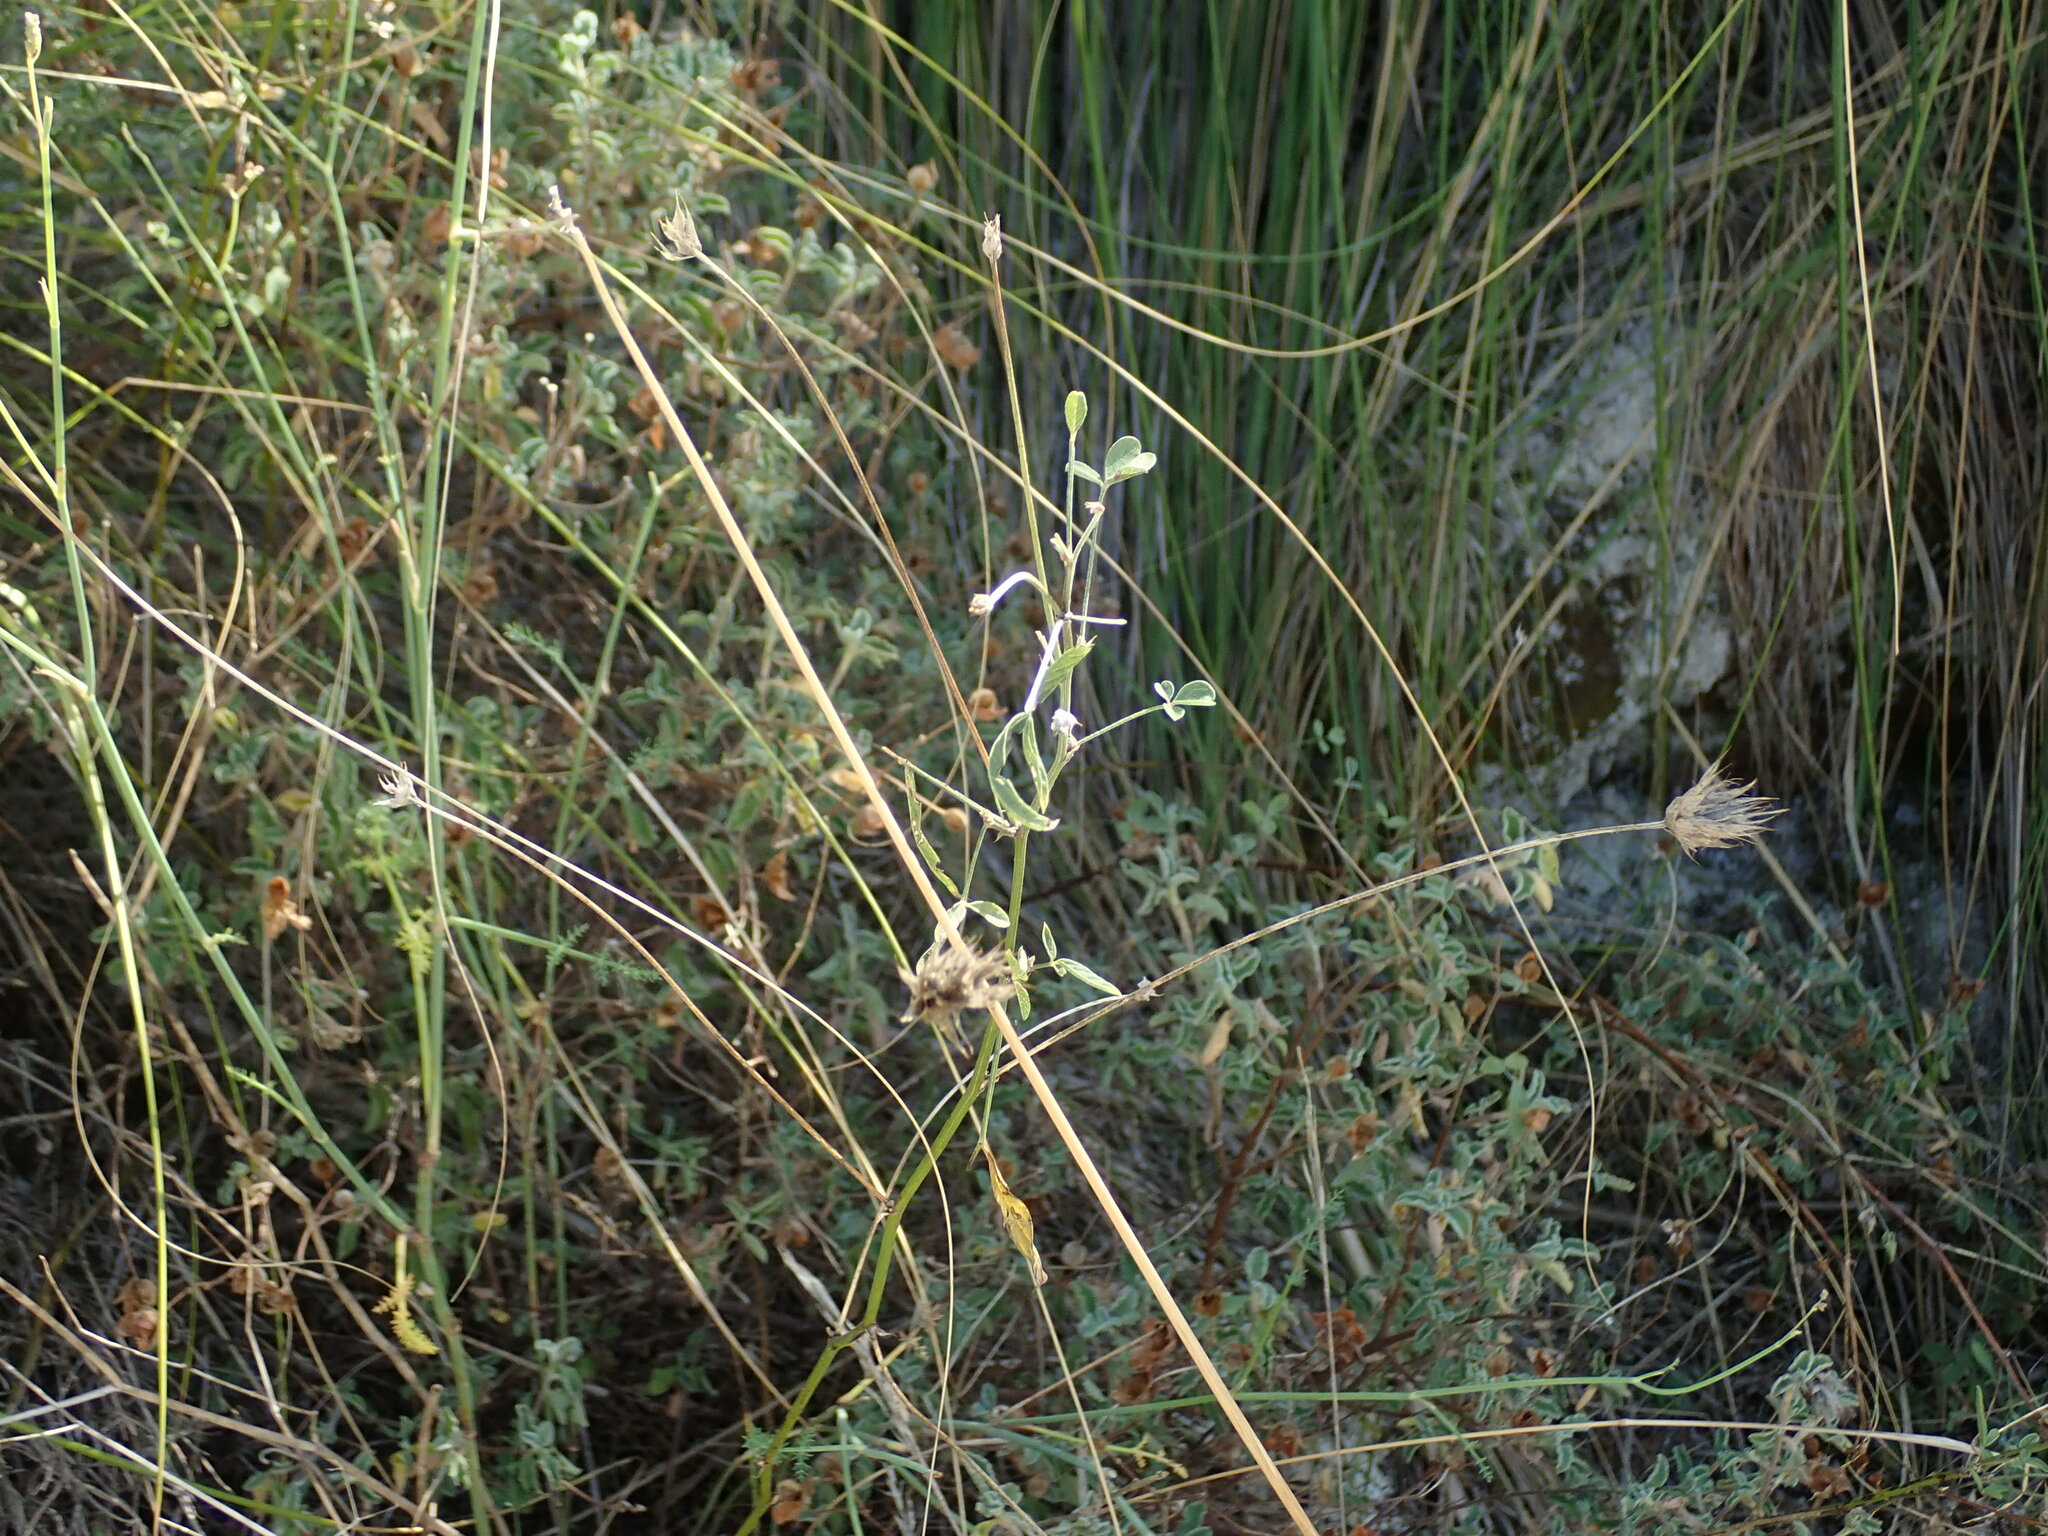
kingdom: Plantae
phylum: Tracheophyta
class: Magnoliopsida
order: Fabales
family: Fabaceae
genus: Bituminaria
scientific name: Bituminaria bituminosa
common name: Arabian pea
